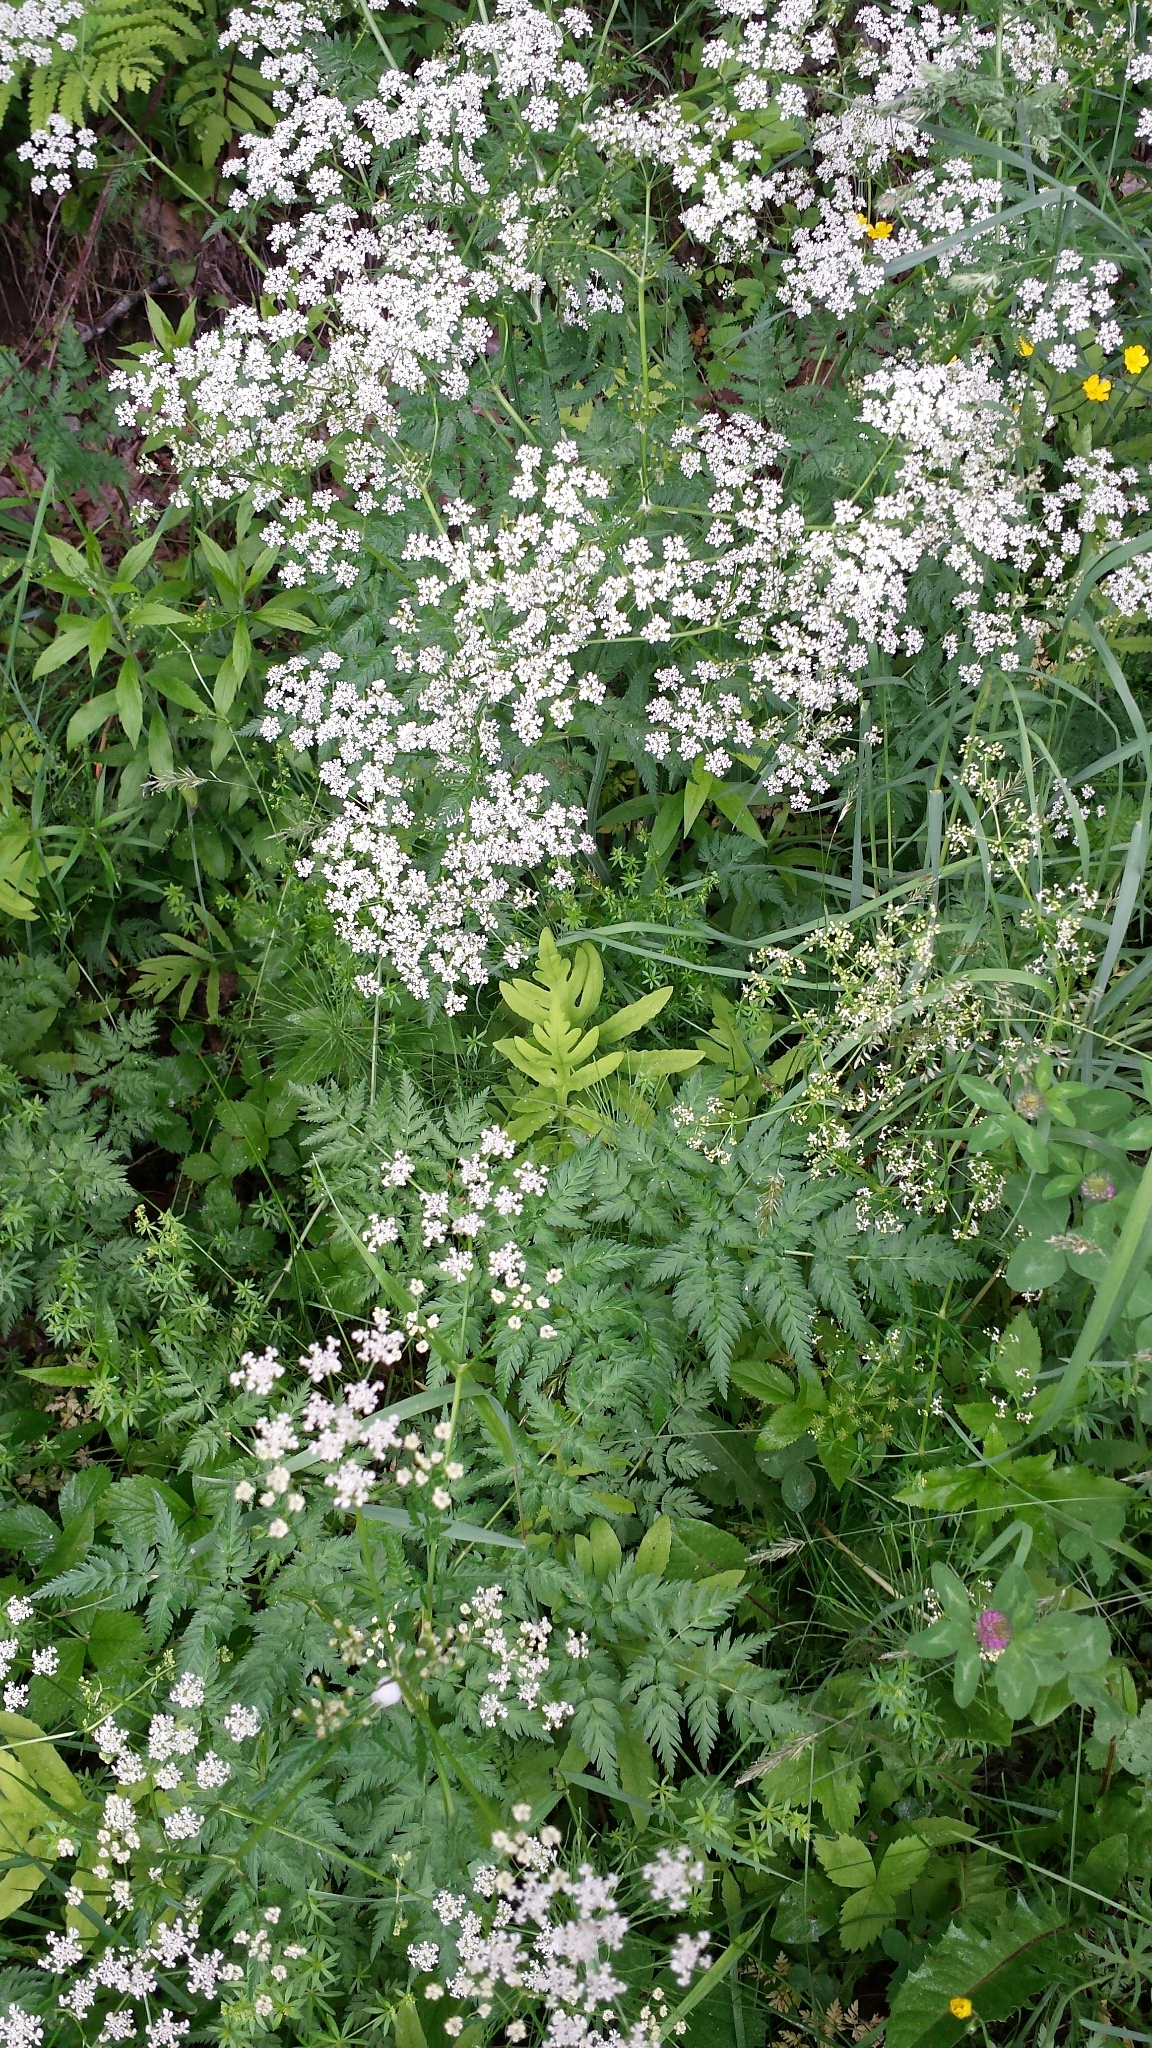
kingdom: Plantae
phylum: Tracheophyta
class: Magnoliopsida
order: Apiales
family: Apiaceae
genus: Anthriscus
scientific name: Anthriscus sylvestris
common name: Cow parsley
